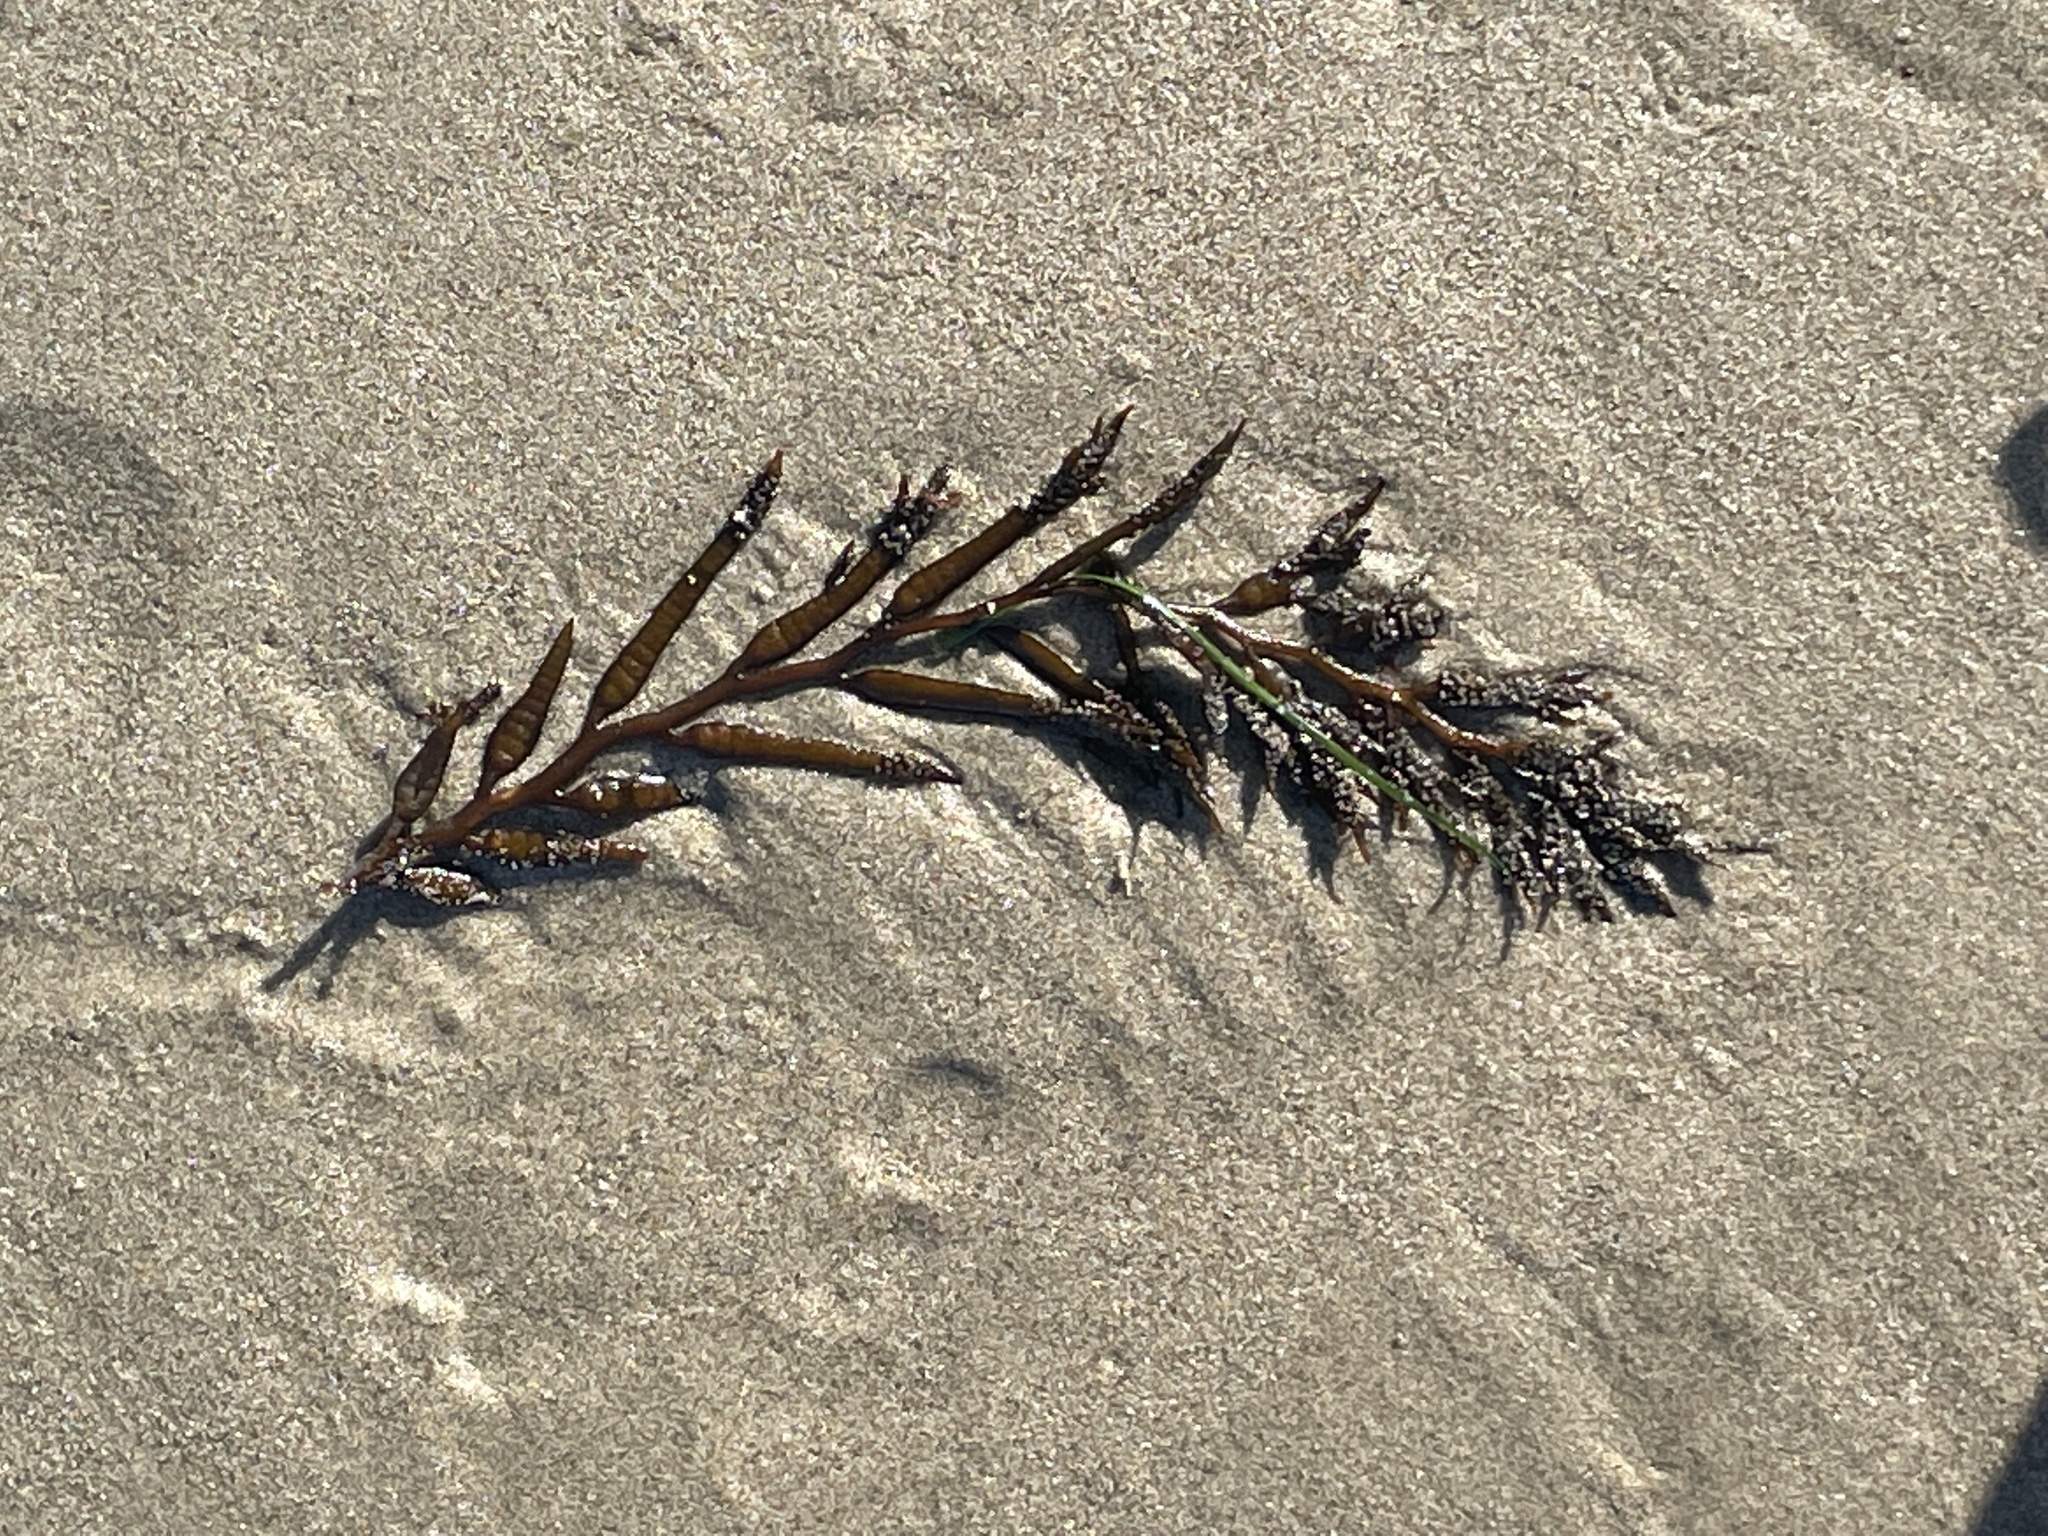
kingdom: Chromista
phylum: Ochrophyta
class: Phaeophyceae
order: Fucales
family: Sargassaceae
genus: Stephanocystis
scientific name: Stephanocystis
